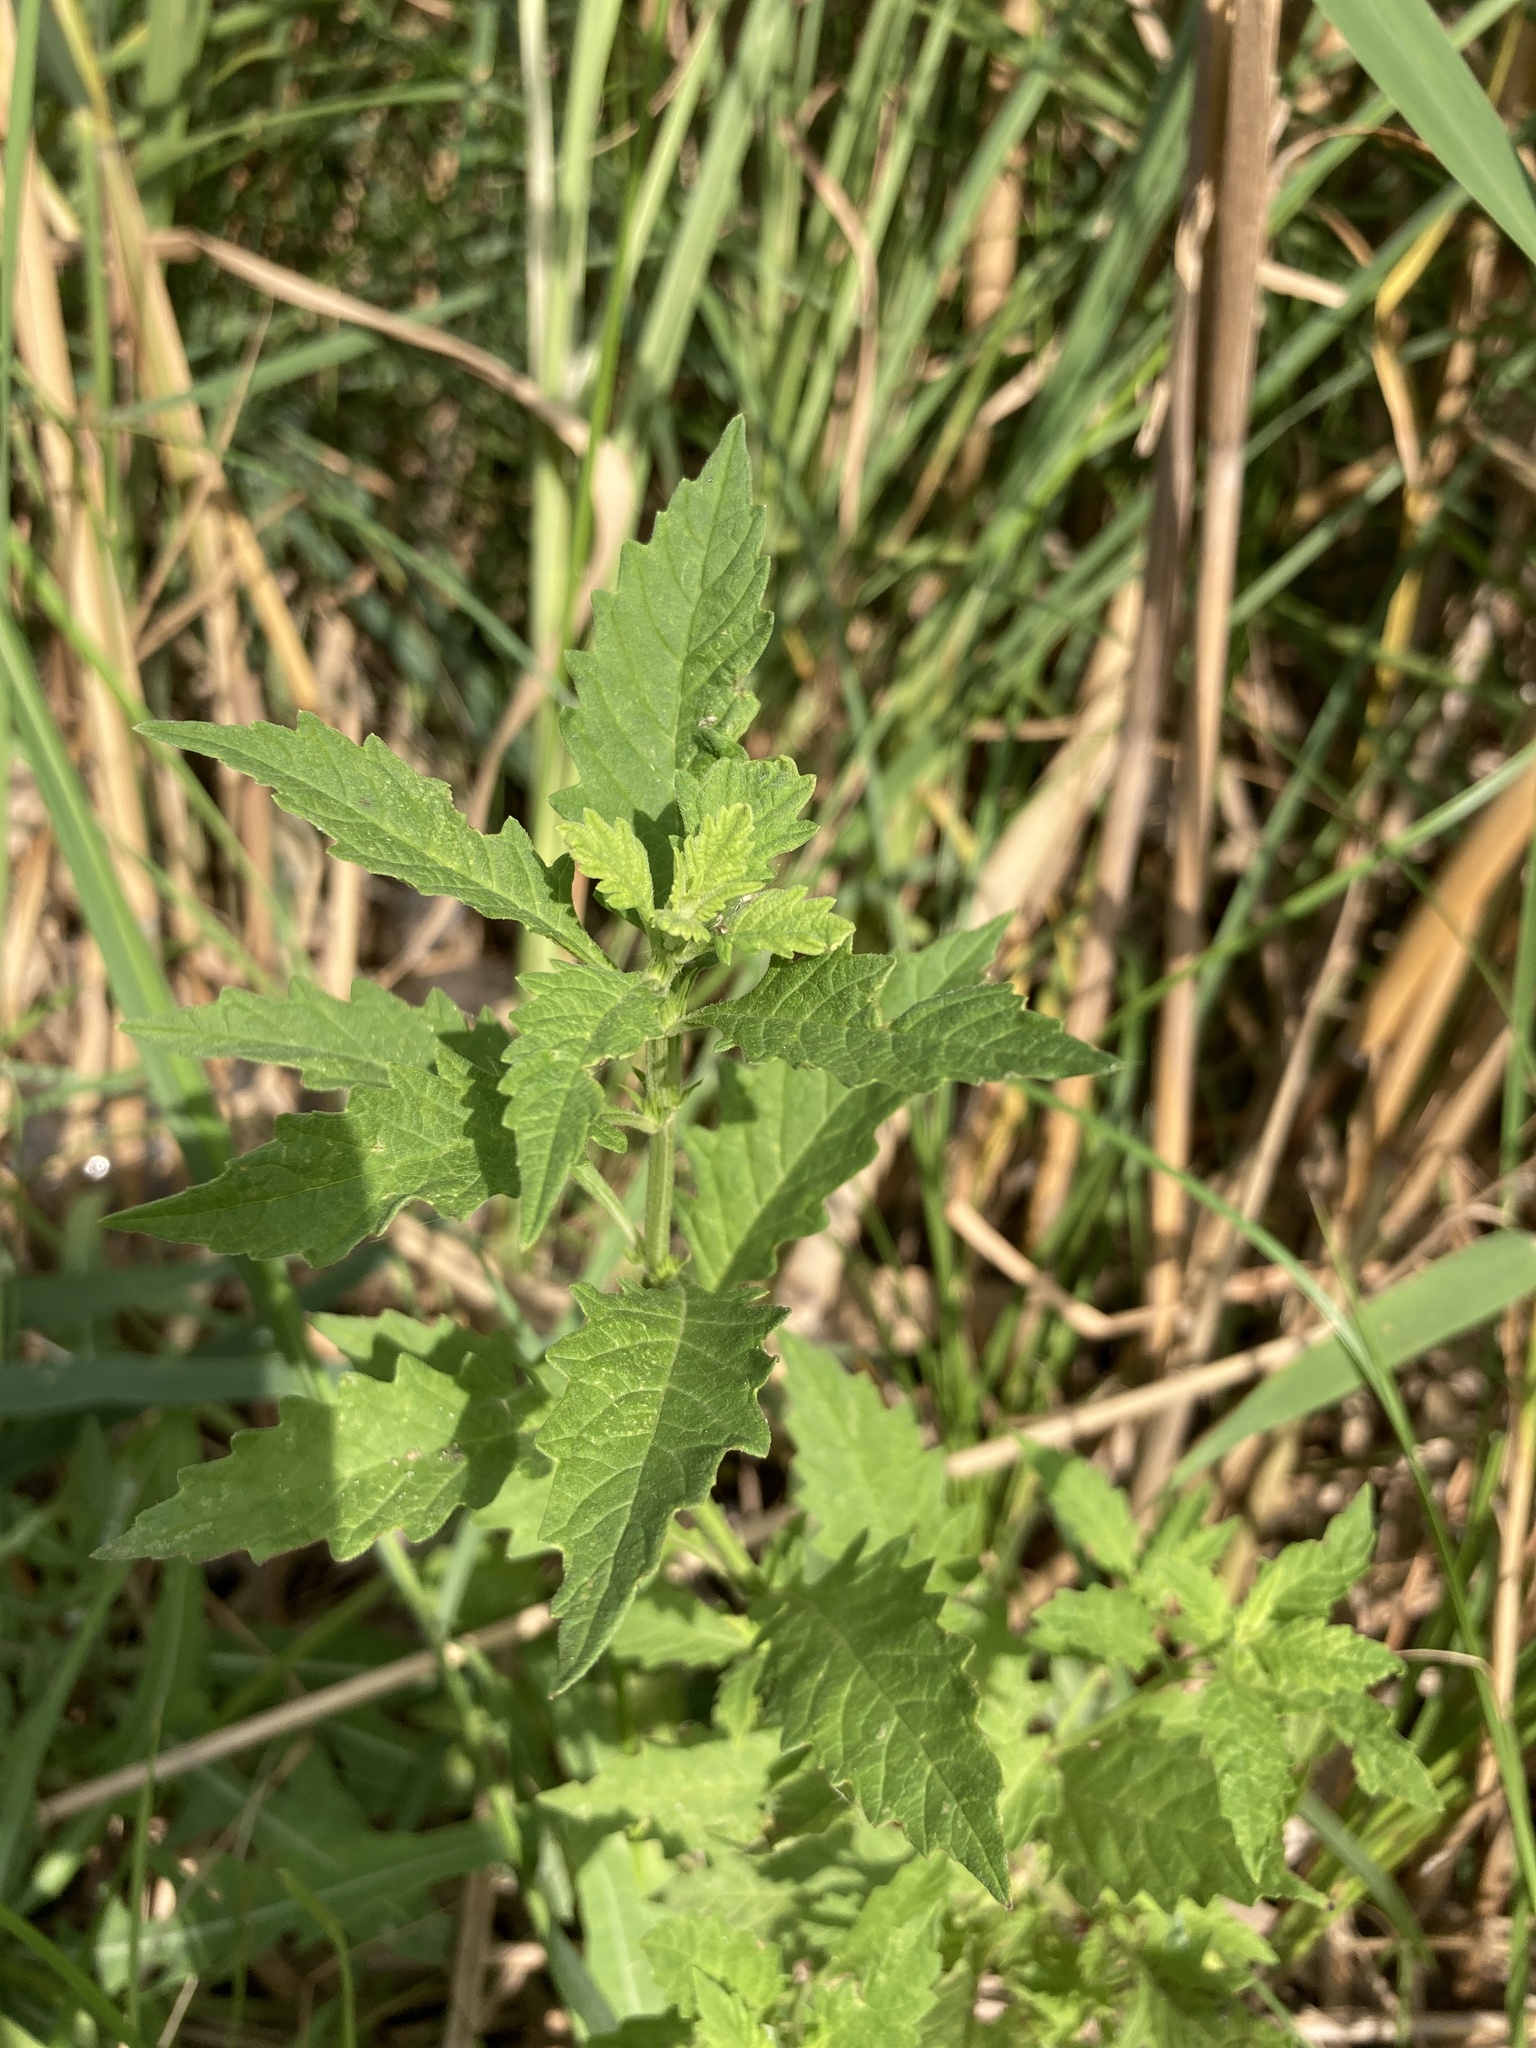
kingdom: Plantae
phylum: Tracheophyta
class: Magnoliopsida
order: Lamiales
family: Lamiaceae
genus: Lycopus
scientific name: Lycopus europaeus
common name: European bugleweed
